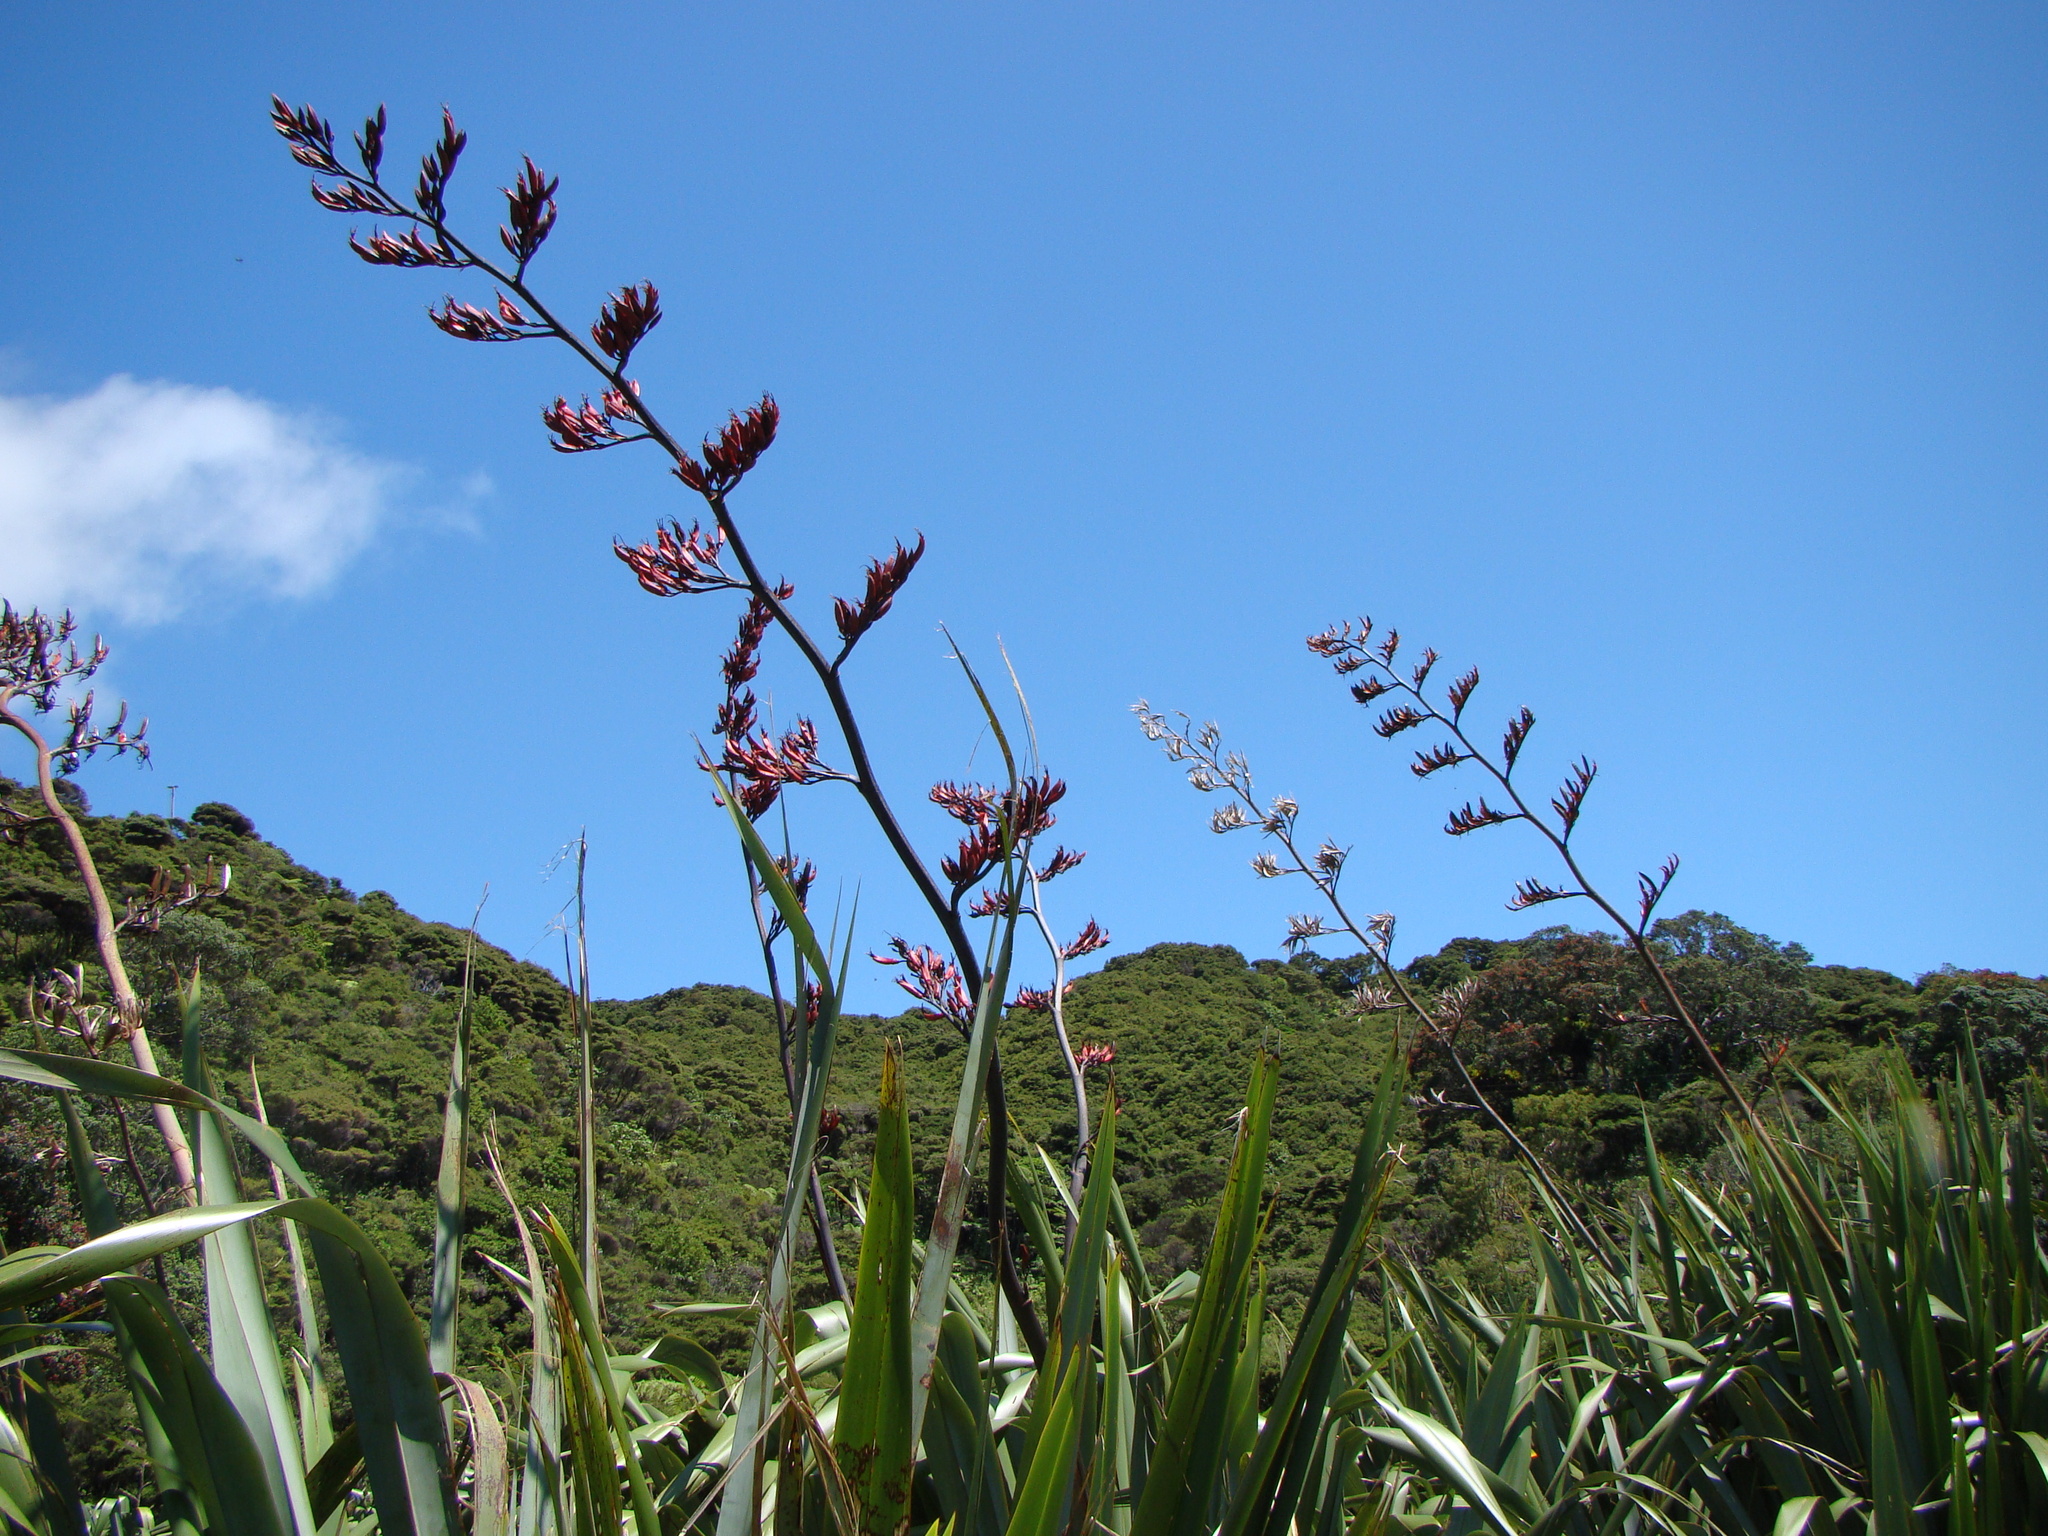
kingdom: Plantae
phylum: Tracheophyta
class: Liliopsida
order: Asparagales
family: Asphodelaceae
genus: Phormium
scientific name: Phormium tenax
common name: New zealand flax
